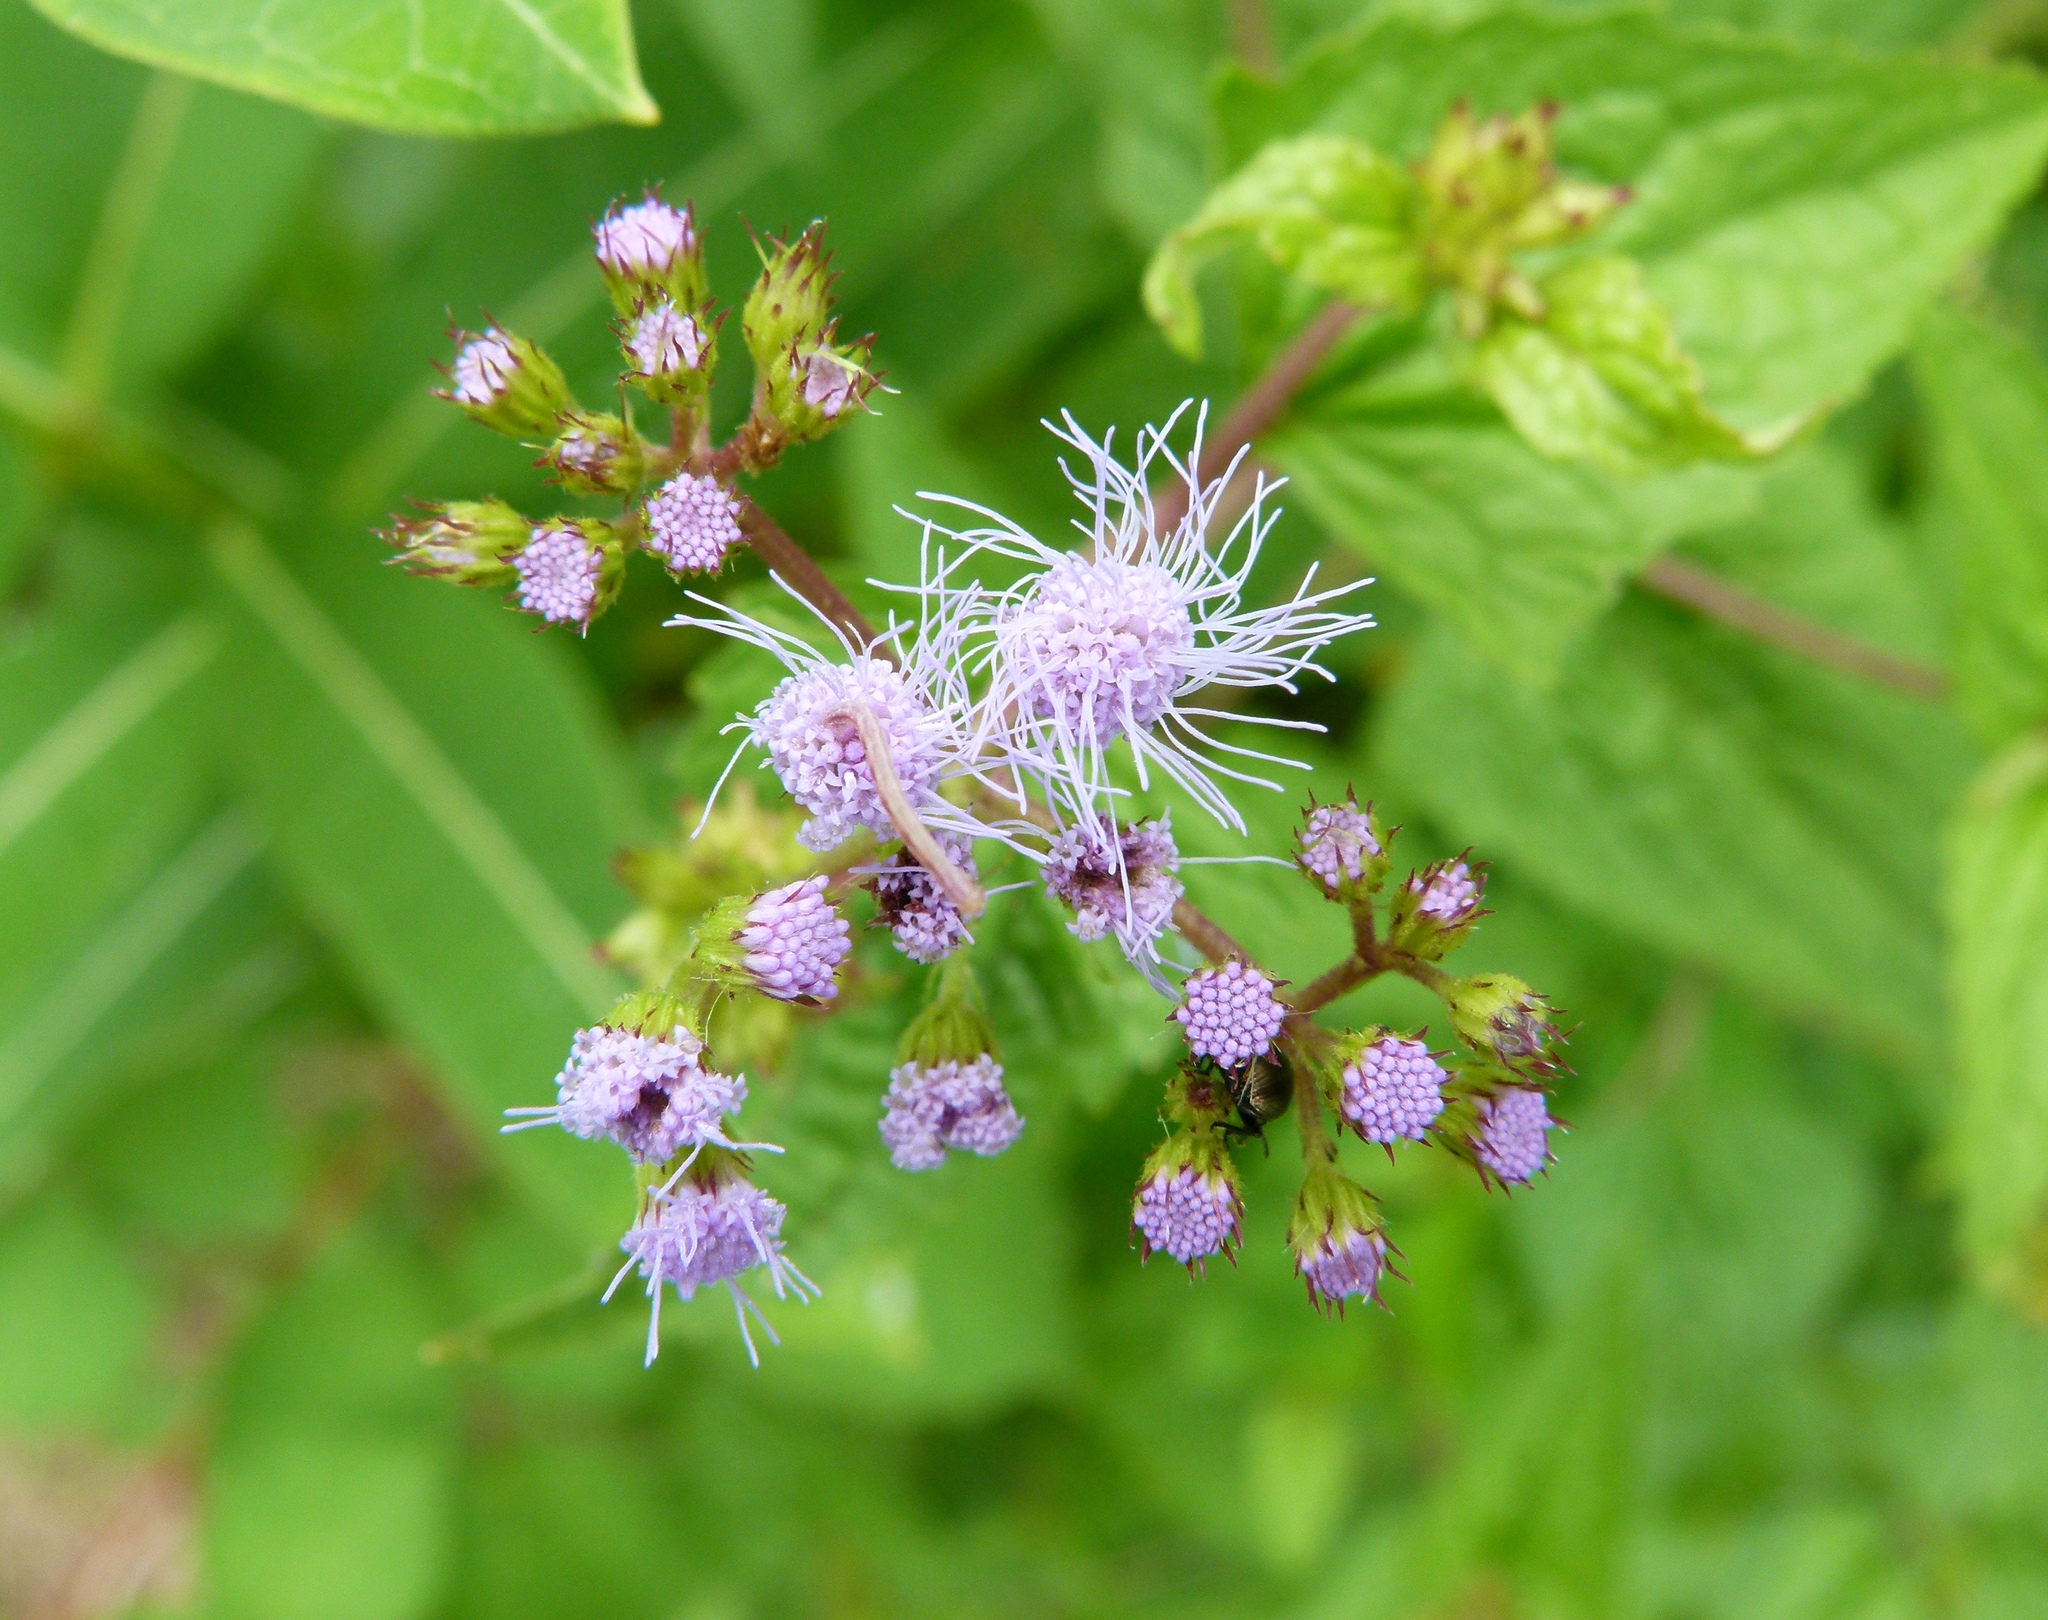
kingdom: Plantae
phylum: Tracheophyta
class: Magnoliopsida
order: Asterales
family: Asteraceae
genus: Conoclinium
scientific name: Conoclinium coelestinum
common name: Blue mistflower
